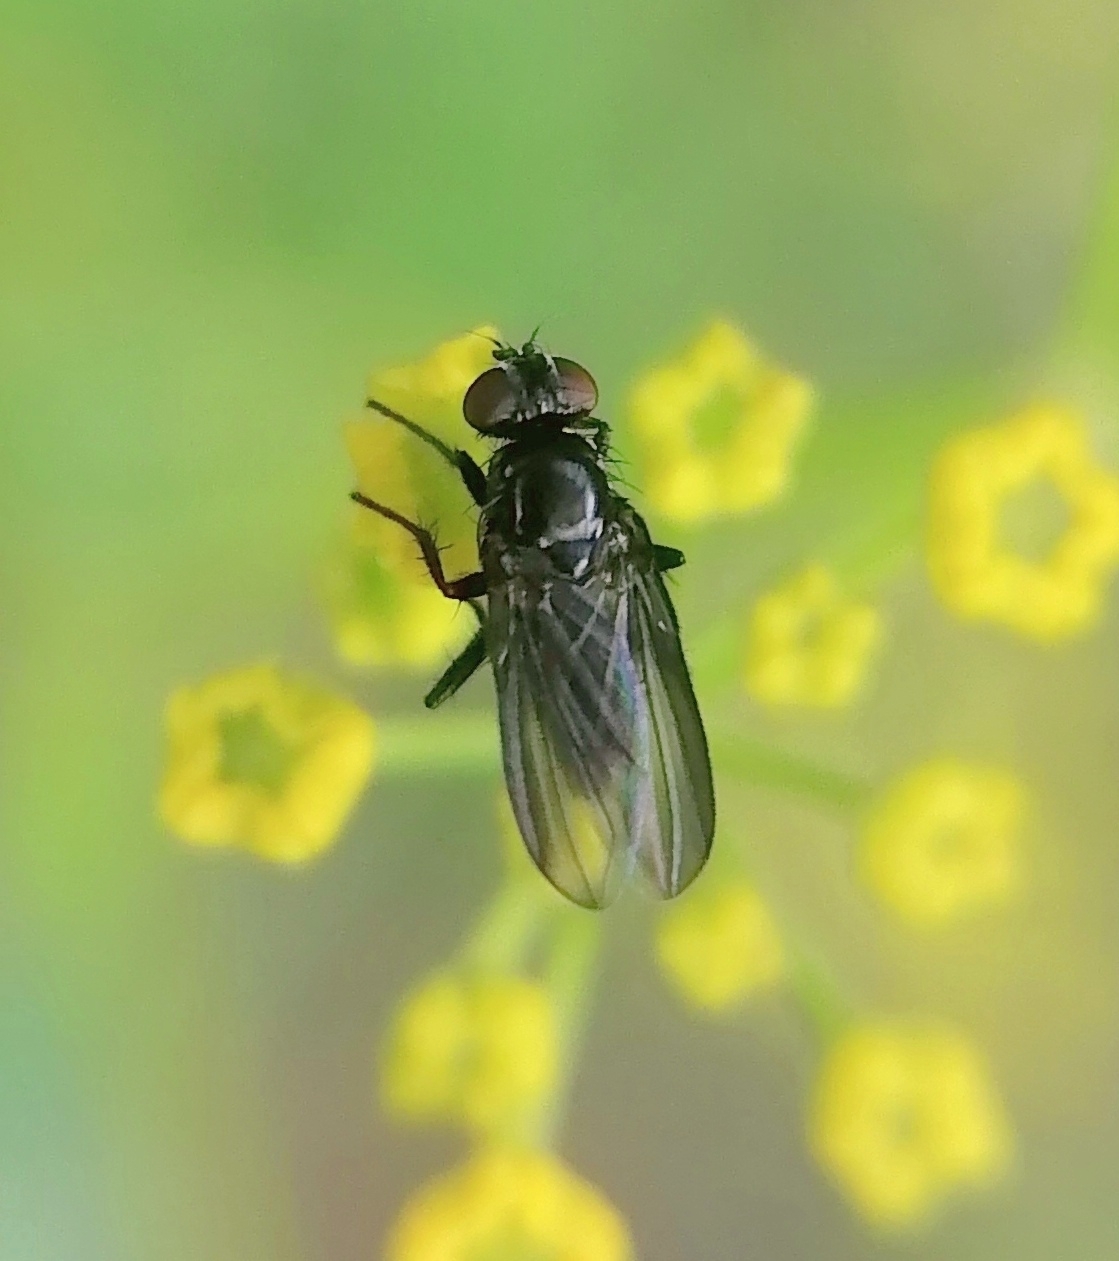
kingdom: Animalia
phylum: Arthropoda
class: Insecta
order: Diptera
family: Calliphoridae
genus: Melanomya
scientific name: Melanomya nana
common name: Little black blowfly
